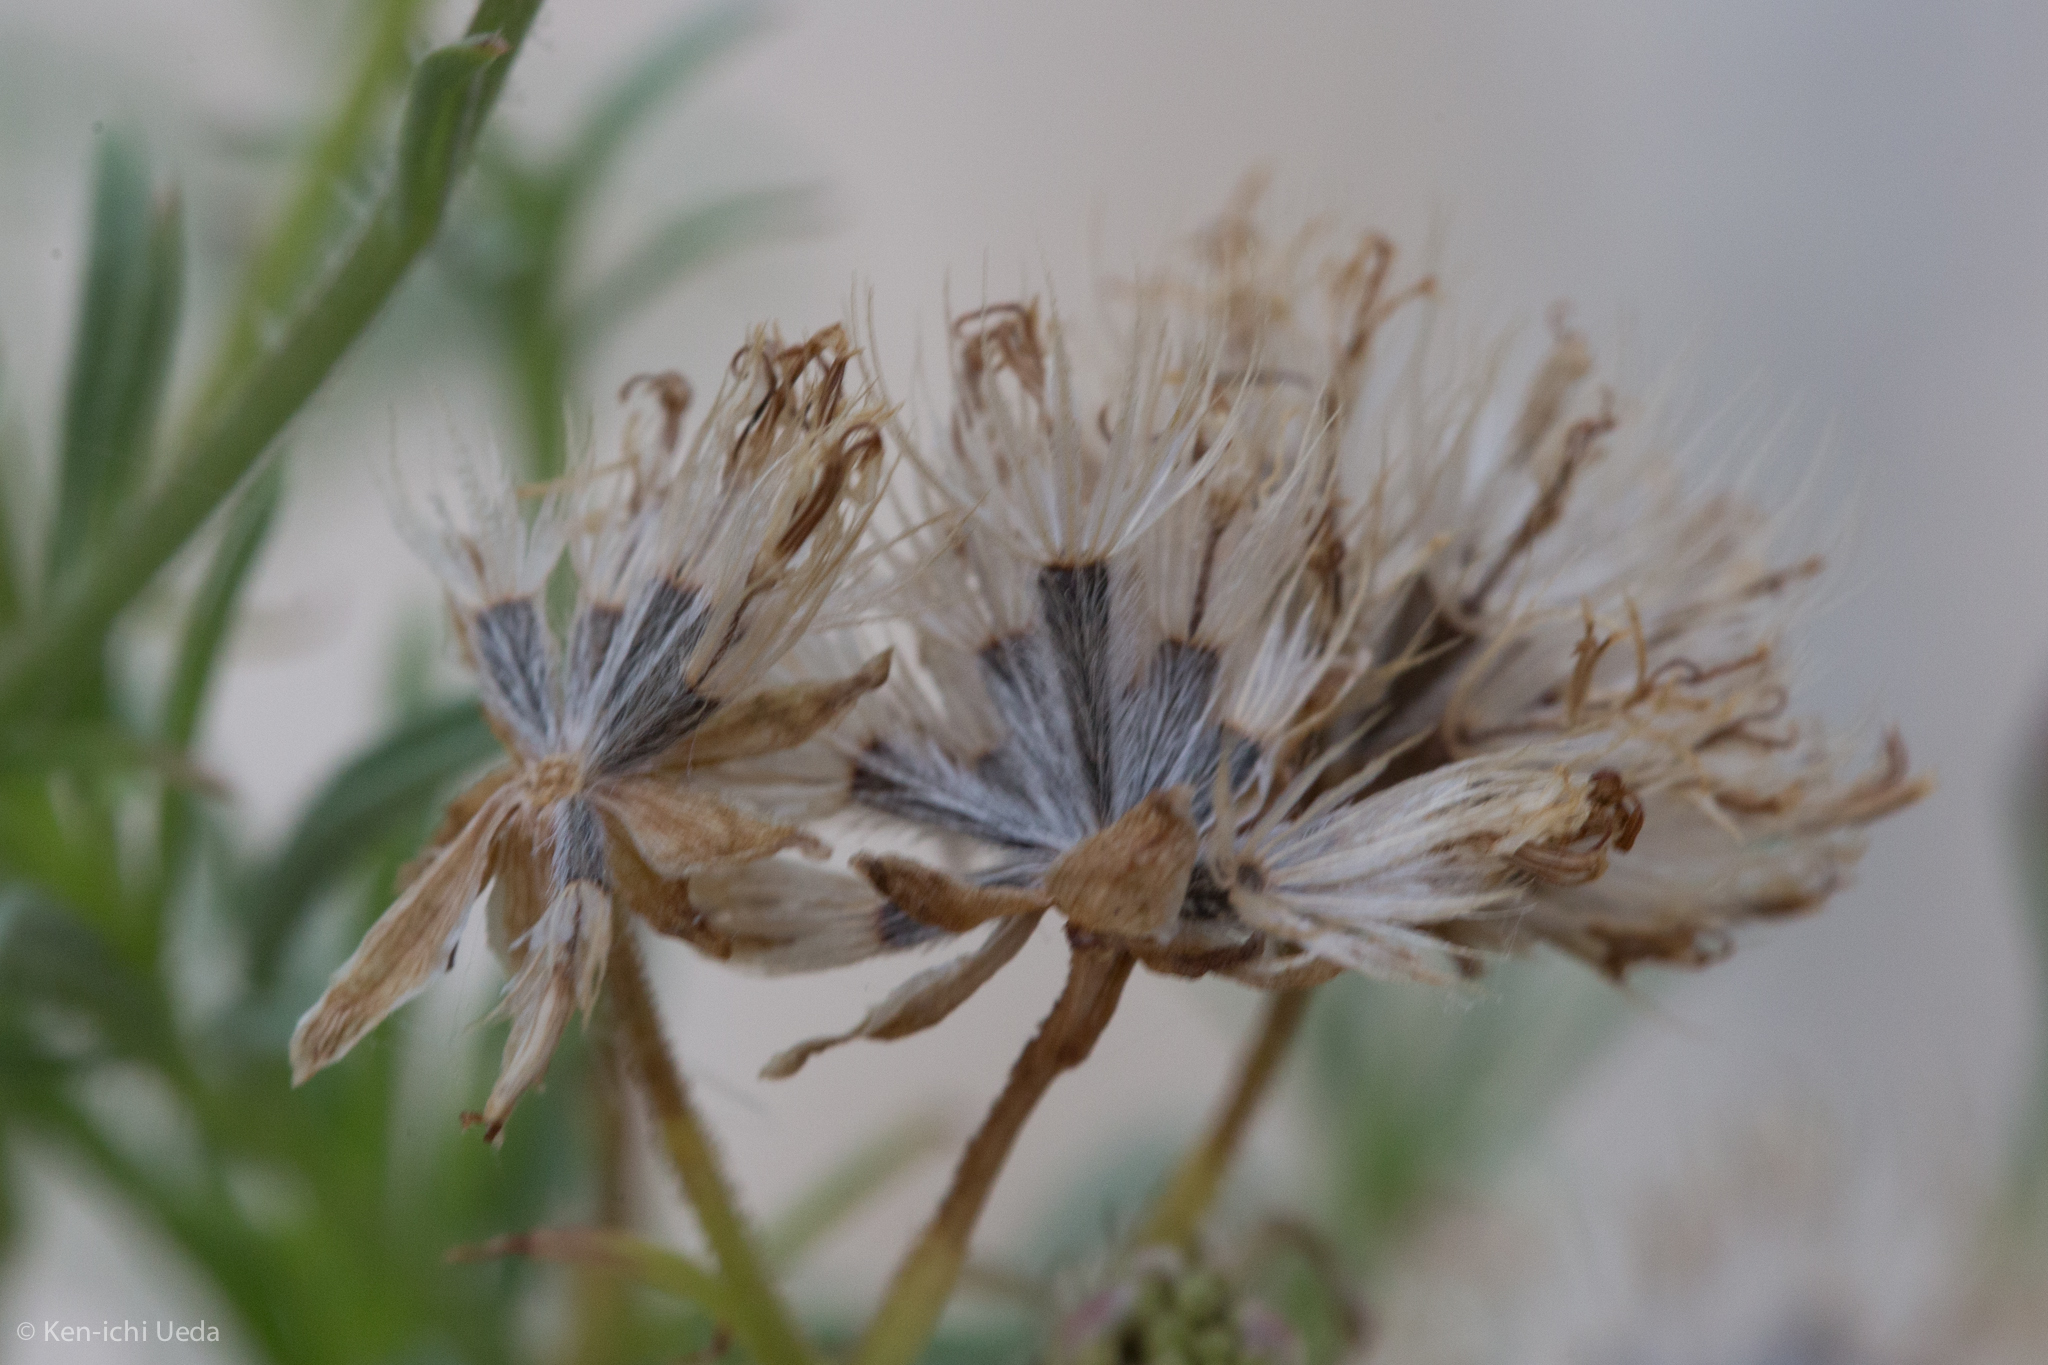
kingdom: Plantae
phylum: Tracheophyta
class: Magnoliopsida
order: Asterales
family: Asteraceae
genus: Hymenothrix
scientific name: Hymenothrix wrightii
